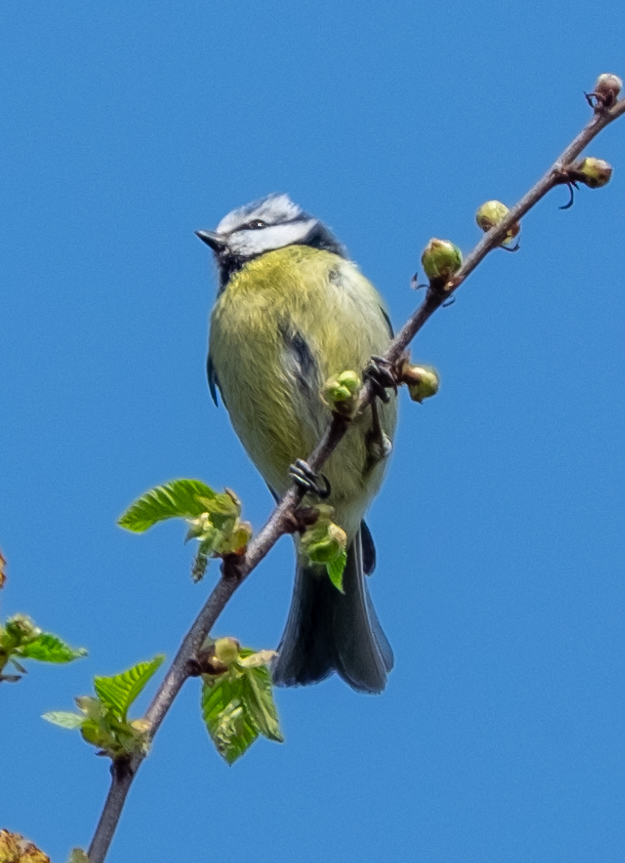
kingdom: Animalia
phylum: Chordata
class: Aves
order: Passeriformes
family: Paridae
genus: Cyanistes
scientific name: Cyanistes caeruleus
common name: Eurasian blue tit
